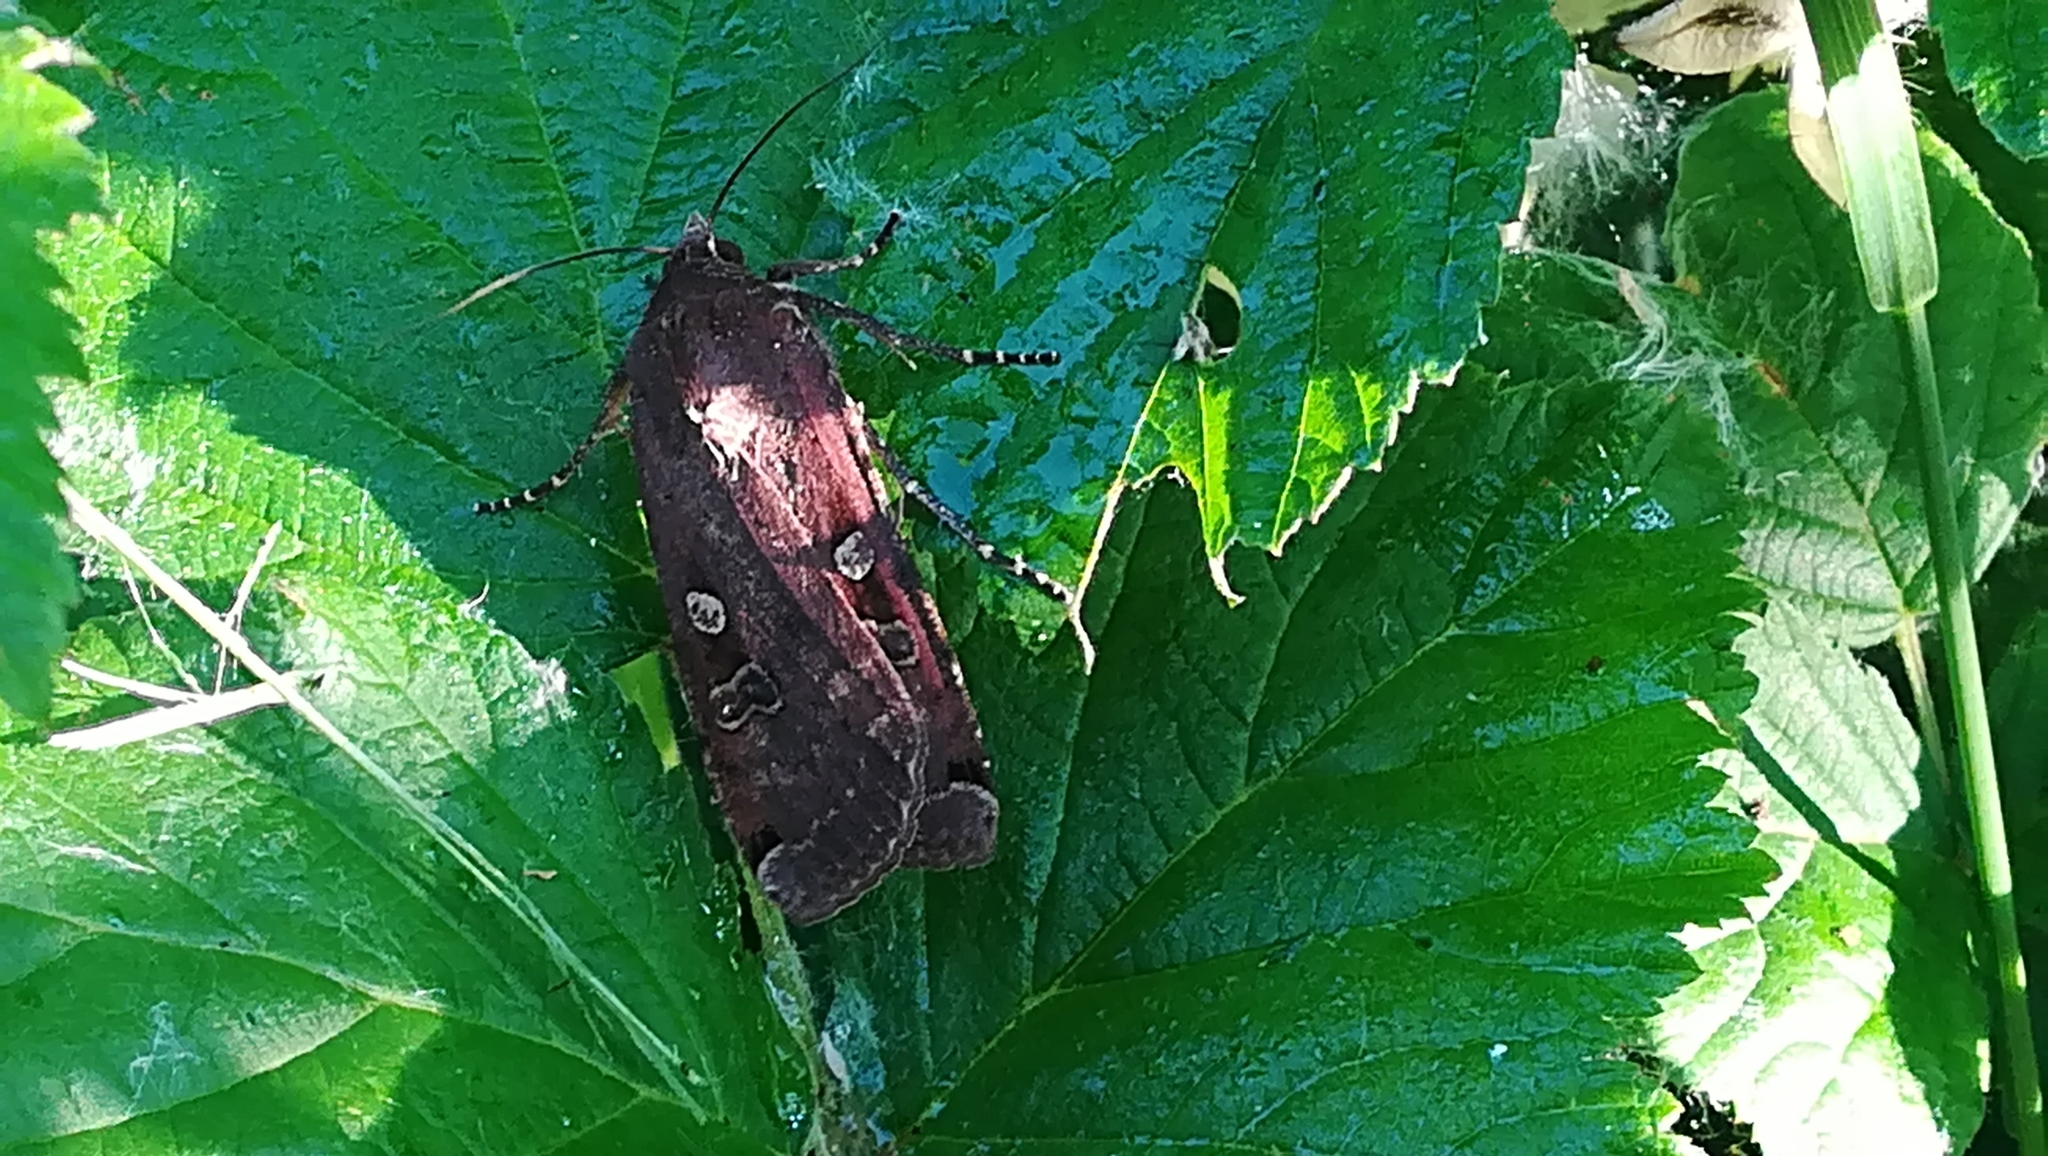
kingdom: Animalia
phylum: Arthropoda
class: Insecta
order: Lepidoptera
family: Noctuidae
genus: Noctua
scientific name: Noctua pronuba
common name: Large yellow underwing
